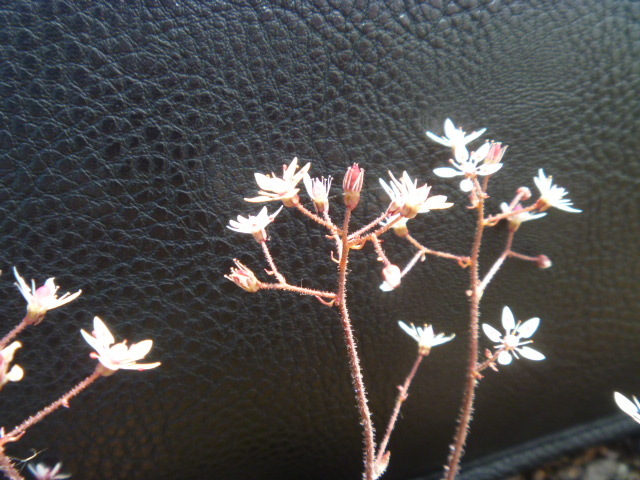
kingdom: Plantae
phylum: Tracheophyta
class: Magnoliopsida
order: Saxifragales
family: Saxifragaceae
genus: Micranthes
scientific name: Micranthes laciniata
